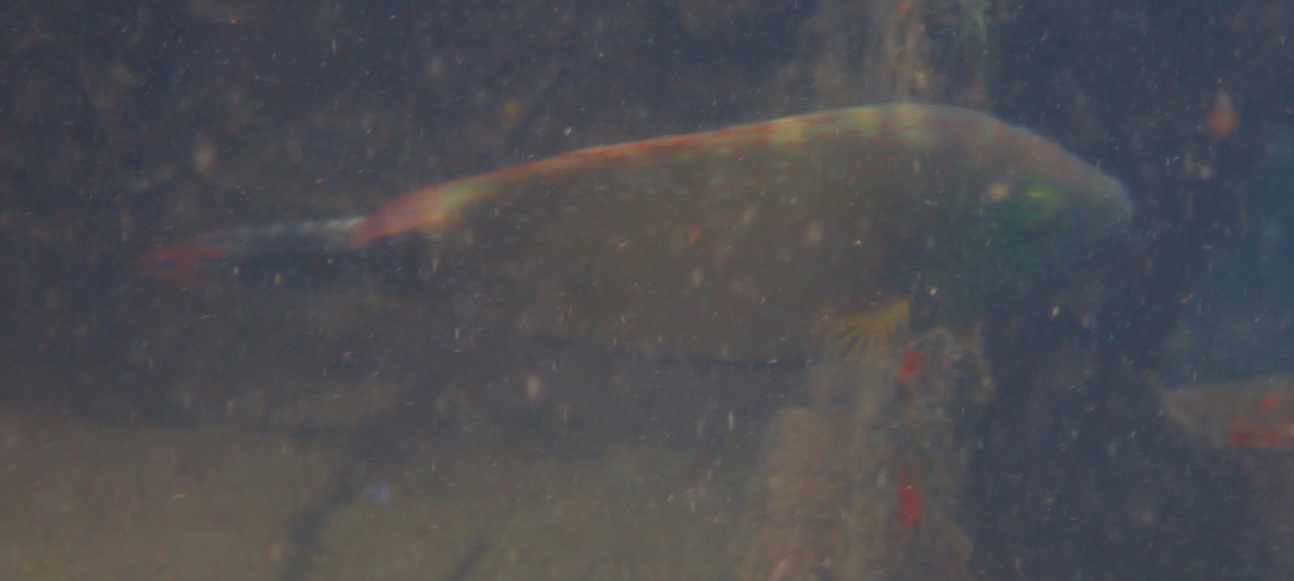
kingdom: Animalia
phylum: Chordata
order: Perciformes
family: Labridae
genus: Cheilinus
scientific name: Cheilinus chlorourus
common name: Floral wrasse
